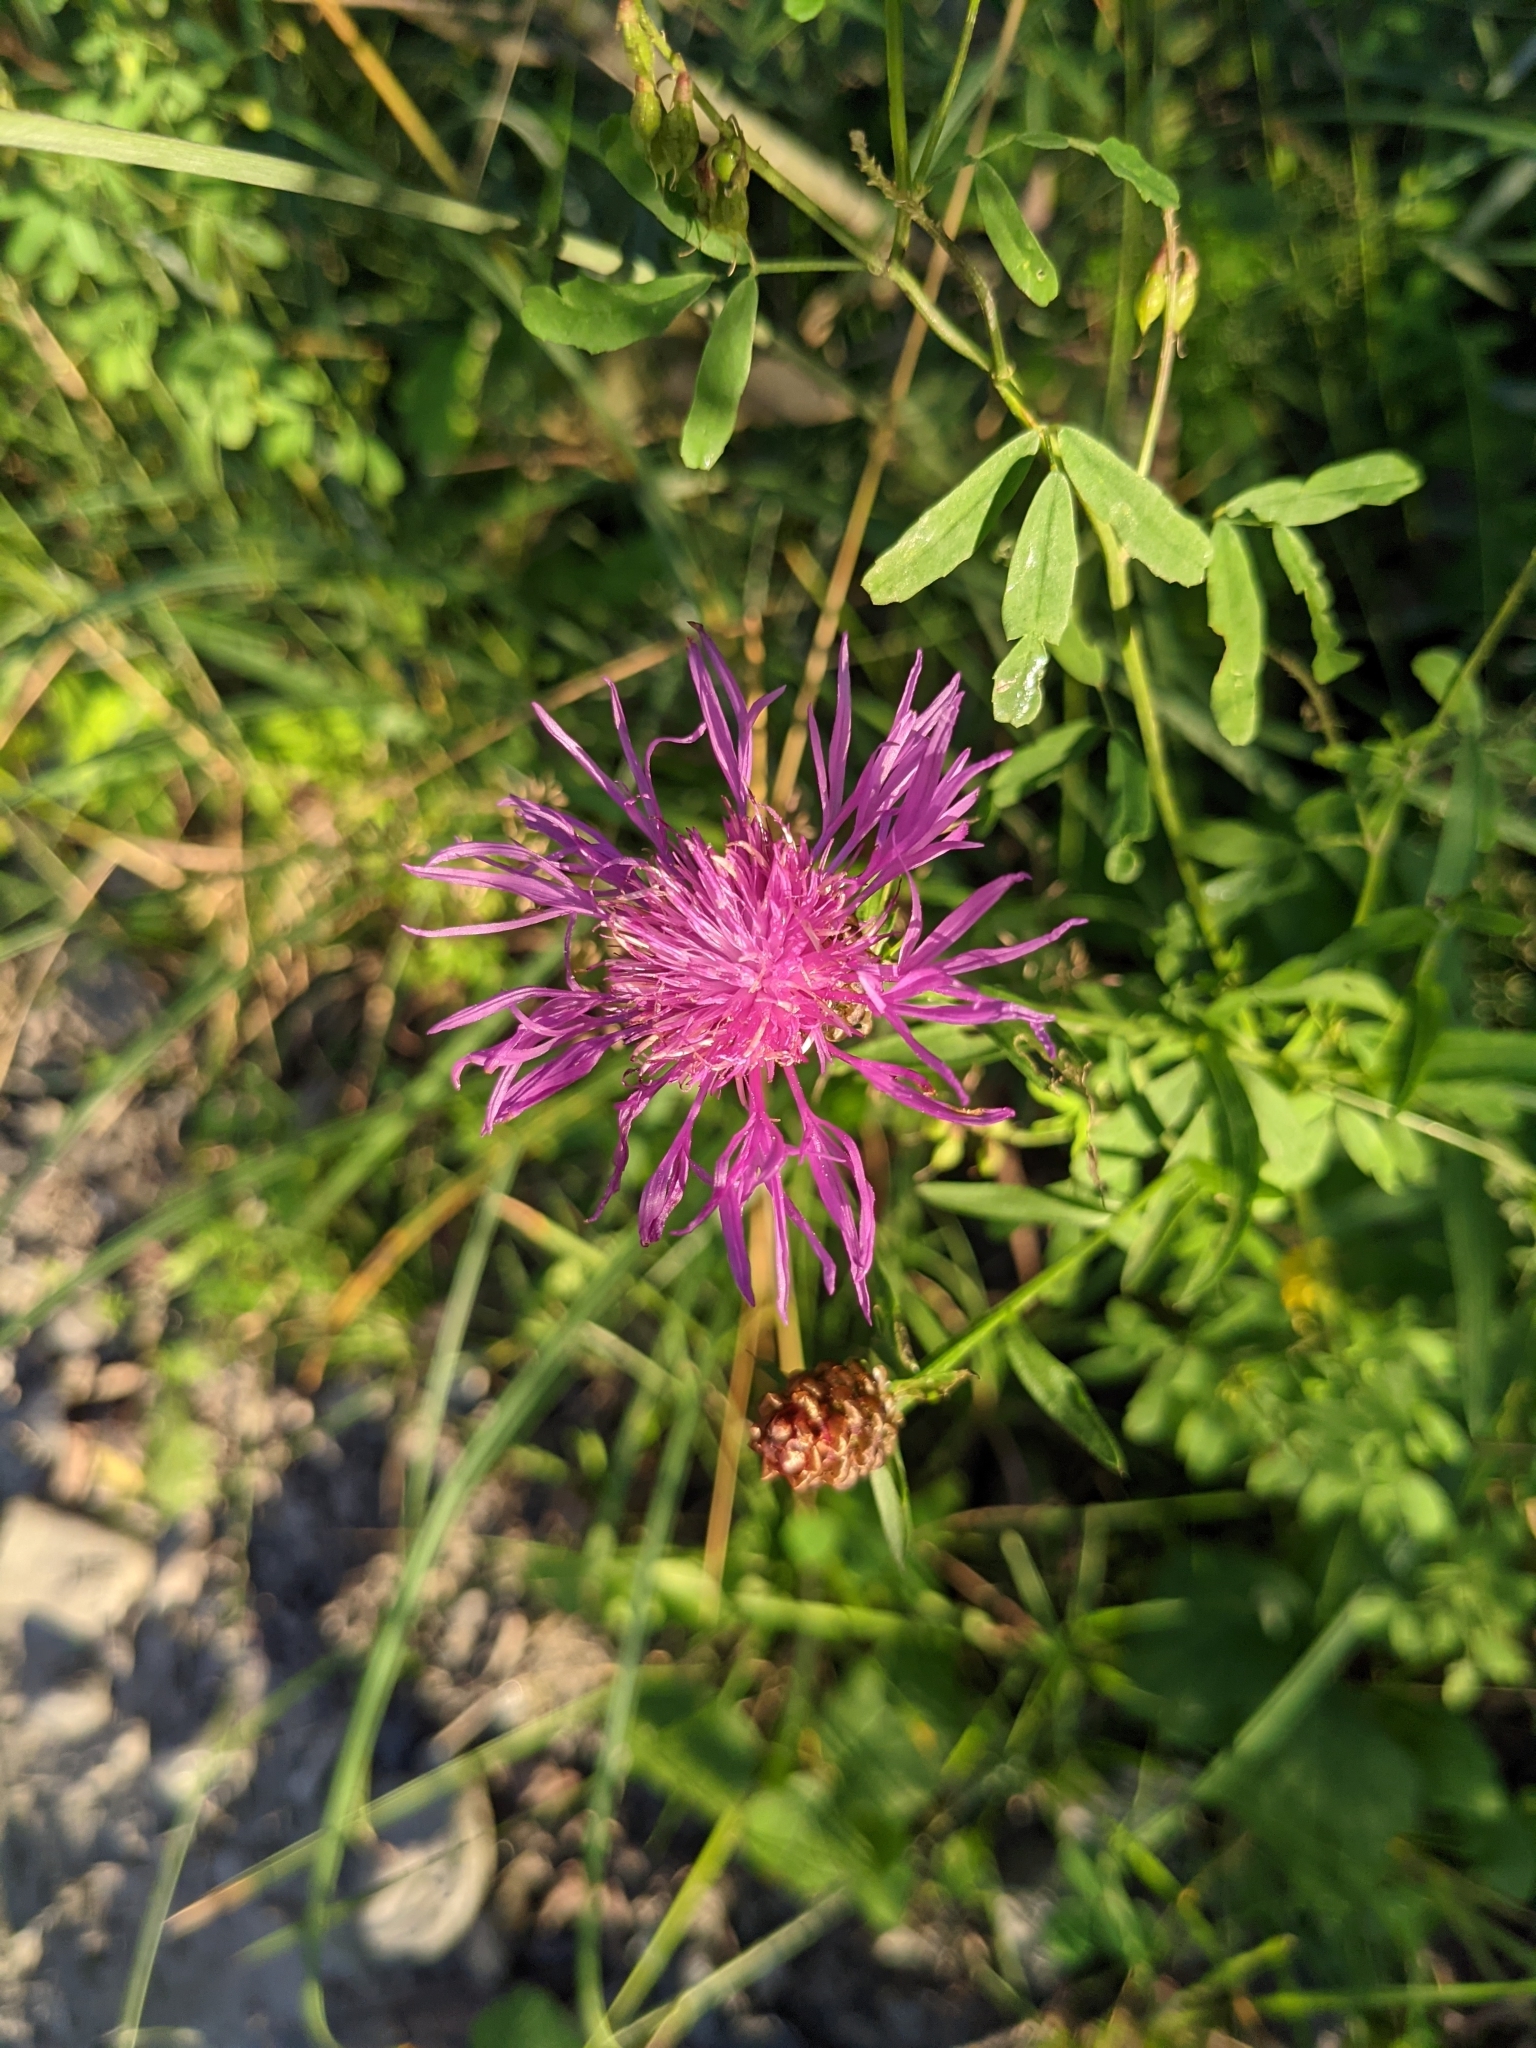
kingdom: Plantae
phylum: Tracheophyta
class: Magnoliopsida
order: Asterales
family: Asteraceae
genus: Centaurea
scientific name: Centaurea jacea
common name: Brown knapweed
